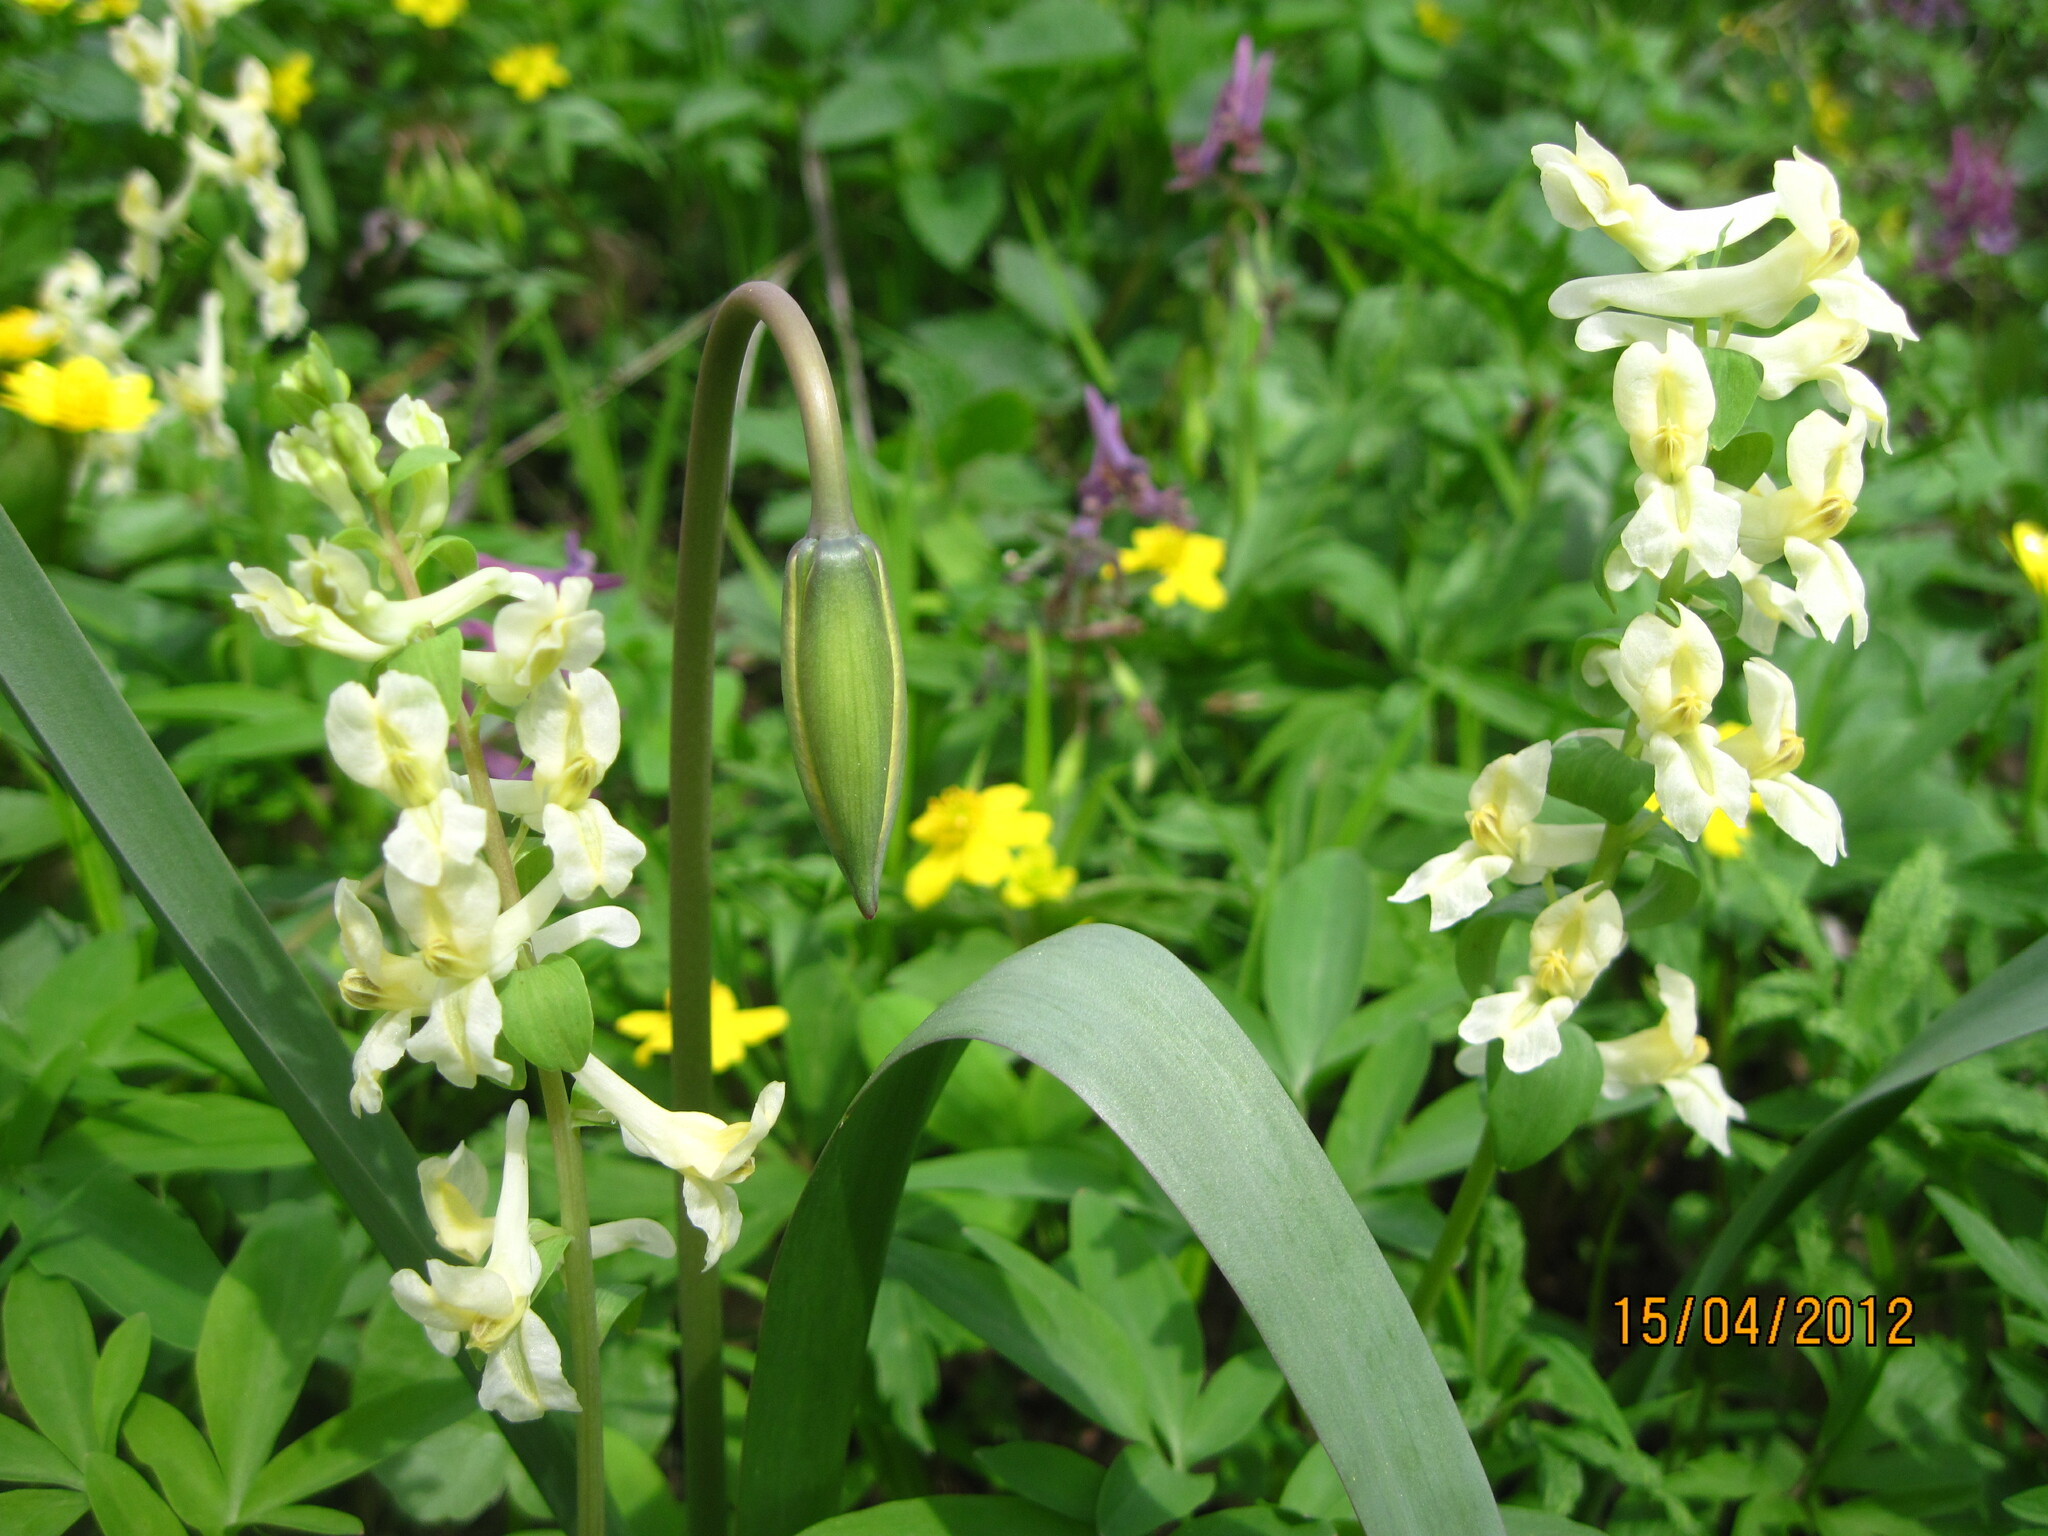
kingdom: Plantae
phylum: Tracheophyta
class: Magnoliopsida
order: Ranunculales
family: Papaveraceae
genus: Corydalis
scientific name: Corydalis cava
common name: Hollowroot
